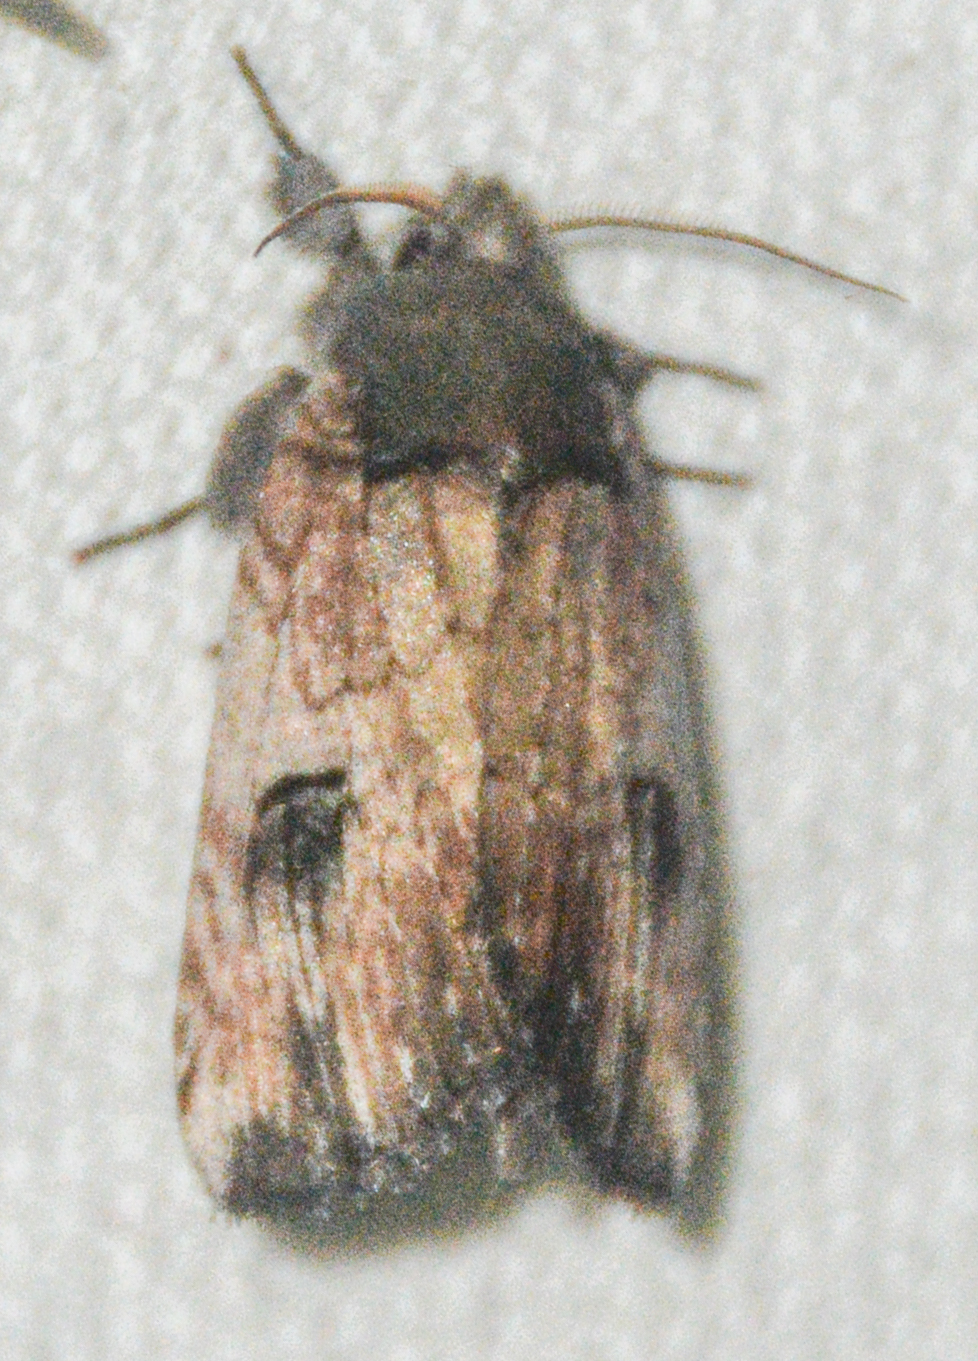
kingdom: Animalia
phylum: Arthropoda
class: Insecta
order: Lepidoptera
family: Notodontidae
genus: Schizura
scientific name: Schizura badia
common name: Chestnut schizura
